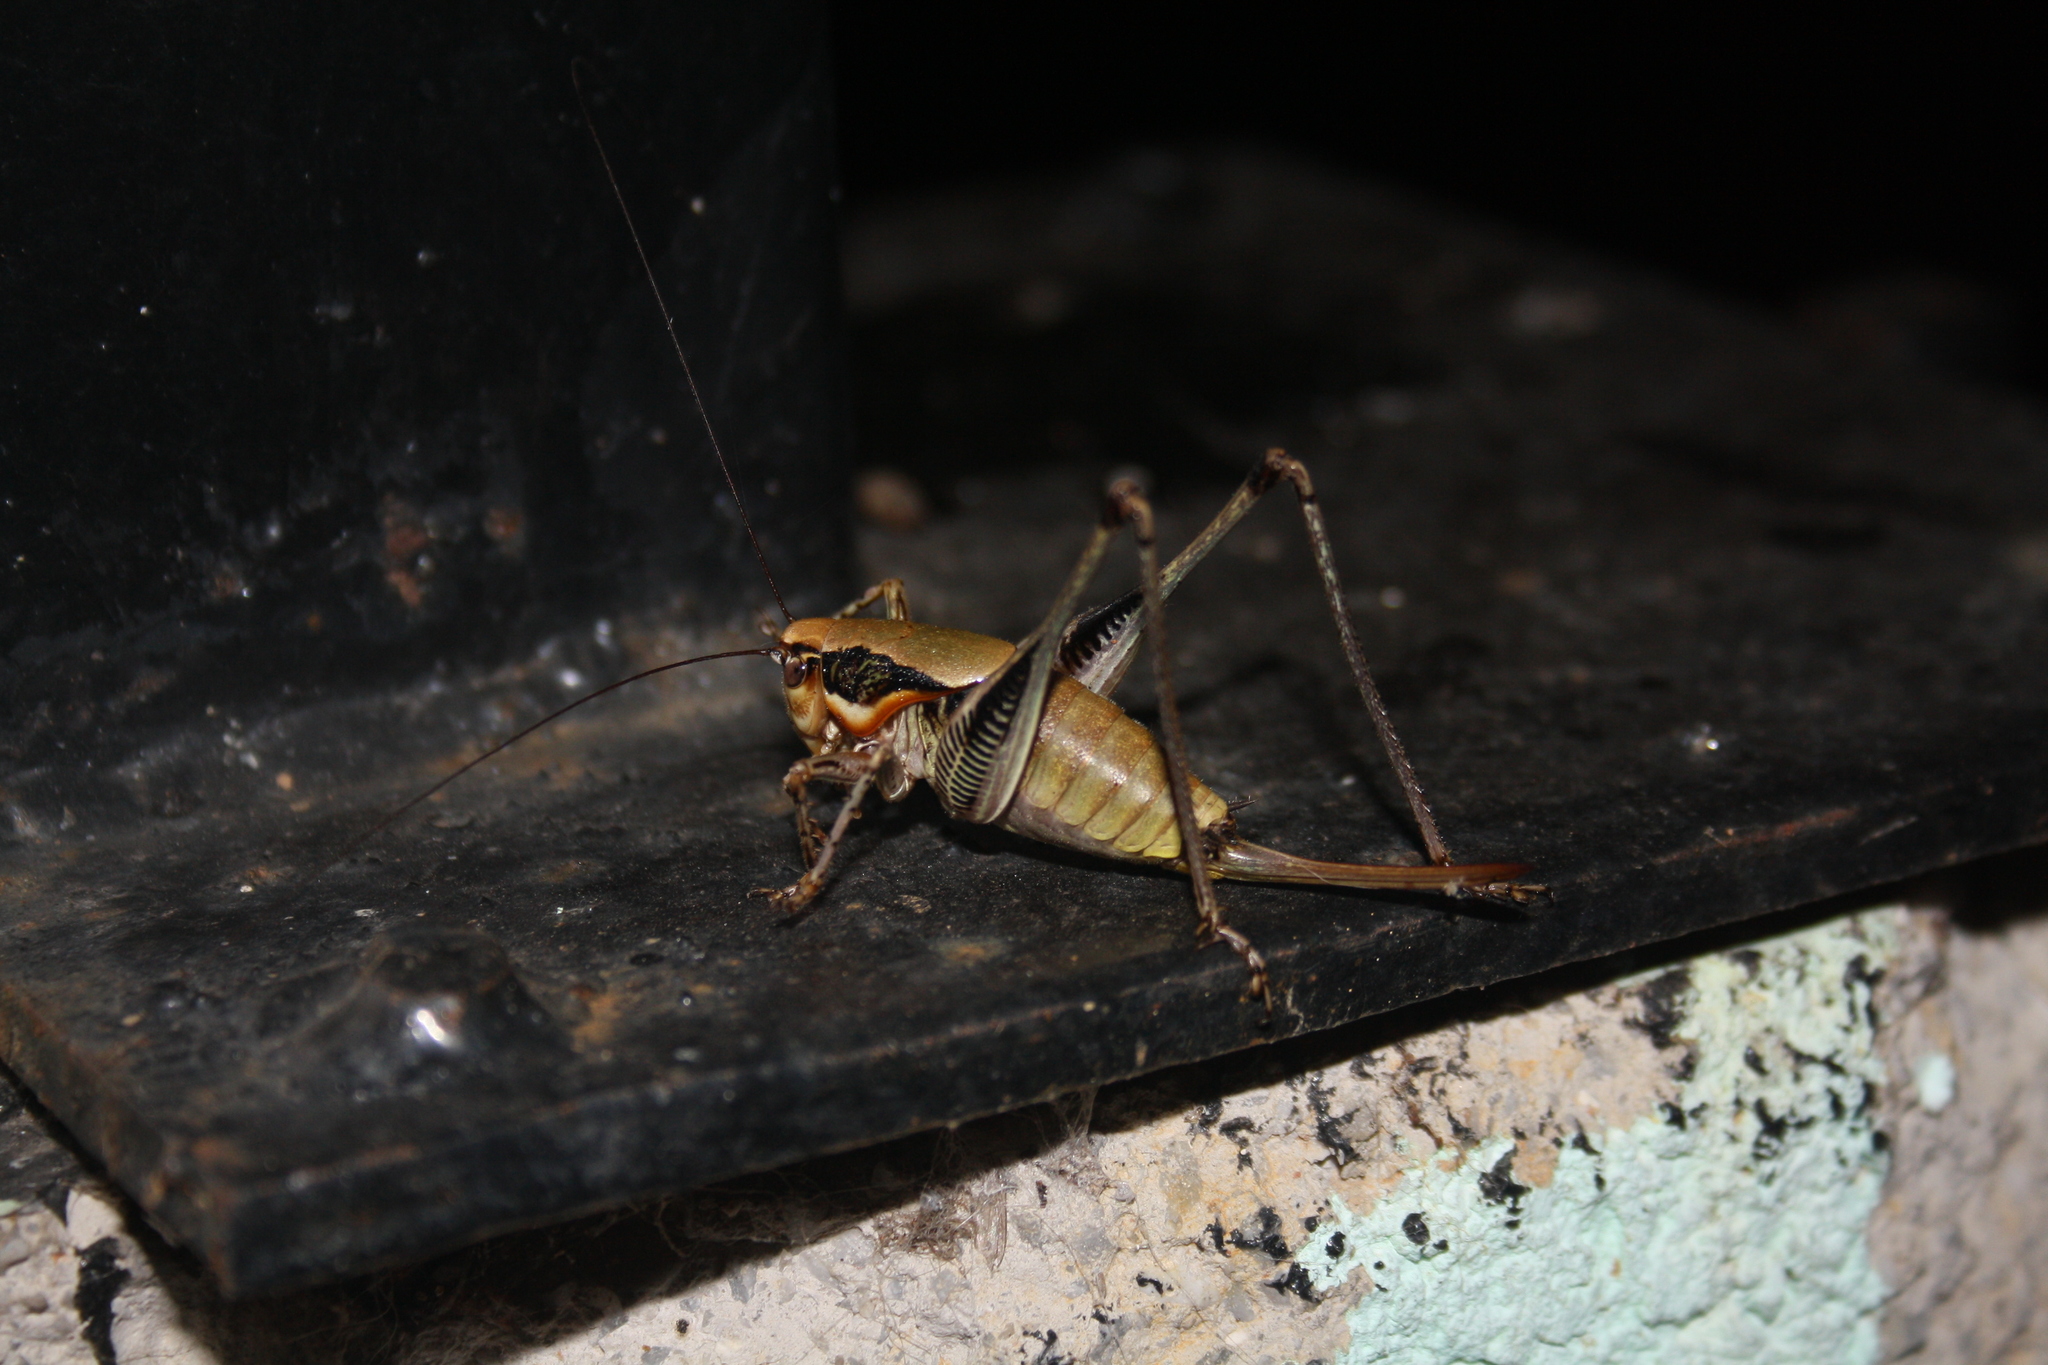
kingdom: Animalia
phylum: Arthropoda
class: Insecta
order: Orthoptera
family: Tettigoniidae
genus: Eupholidoptera
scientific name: Eupholidoptera megastyla
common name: Greek marbled bush-cricket
